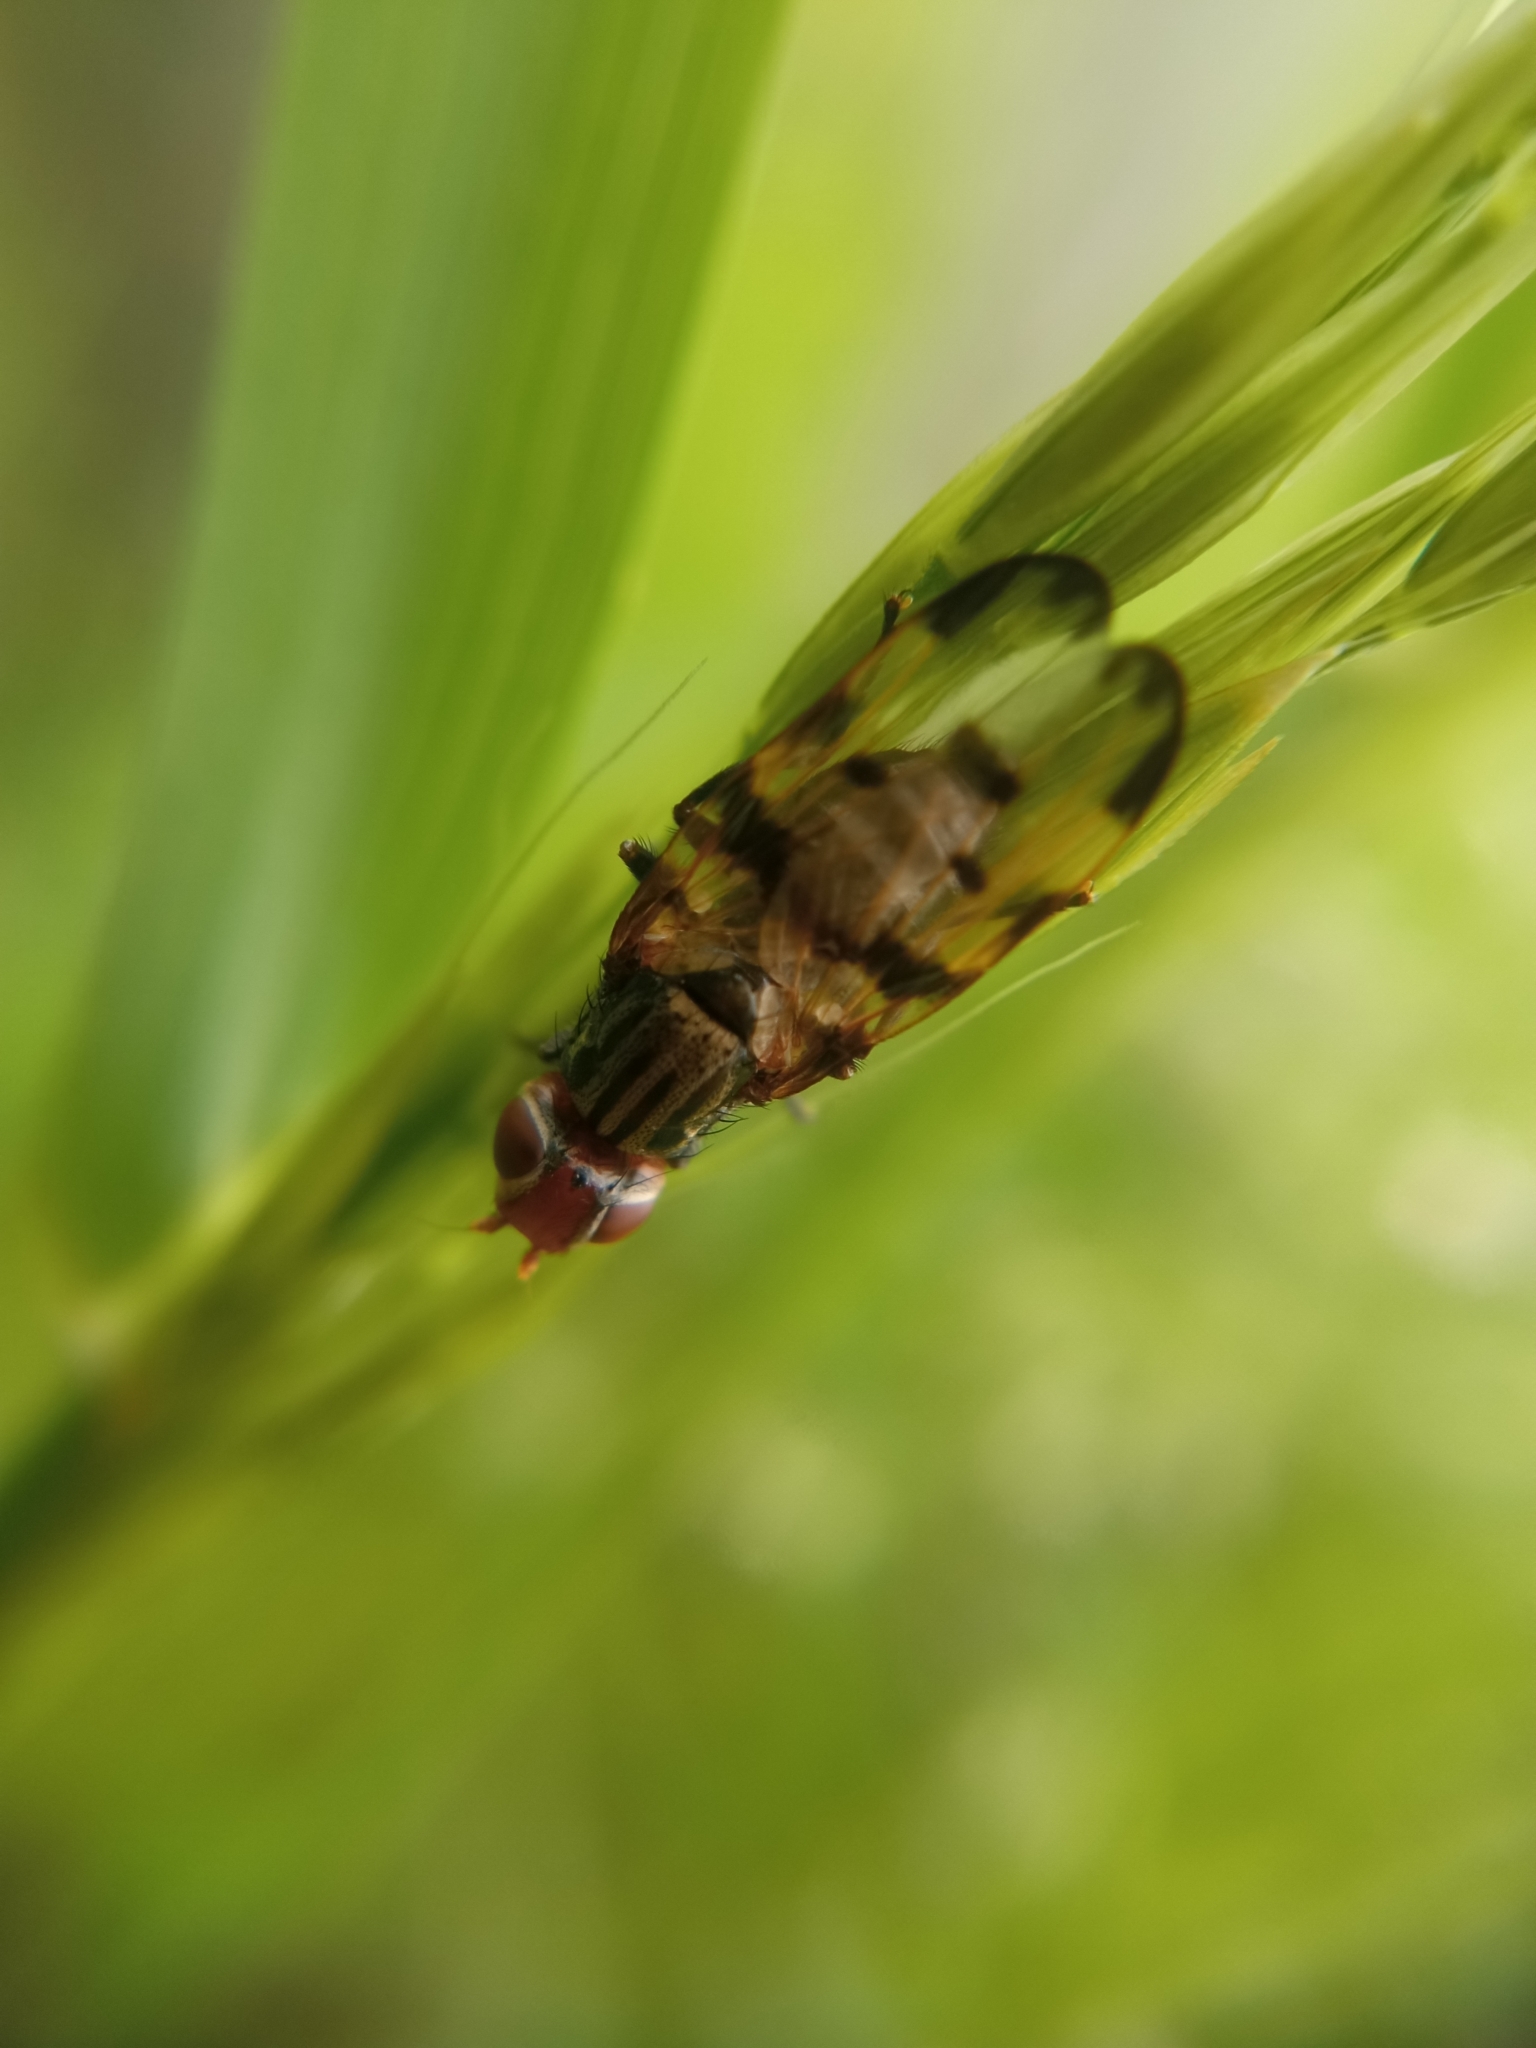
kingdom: Animalia
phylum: Arthropoda
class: Insecta
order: Diptera
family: Ulidiidae
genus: Otites
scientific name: Otites elegans
